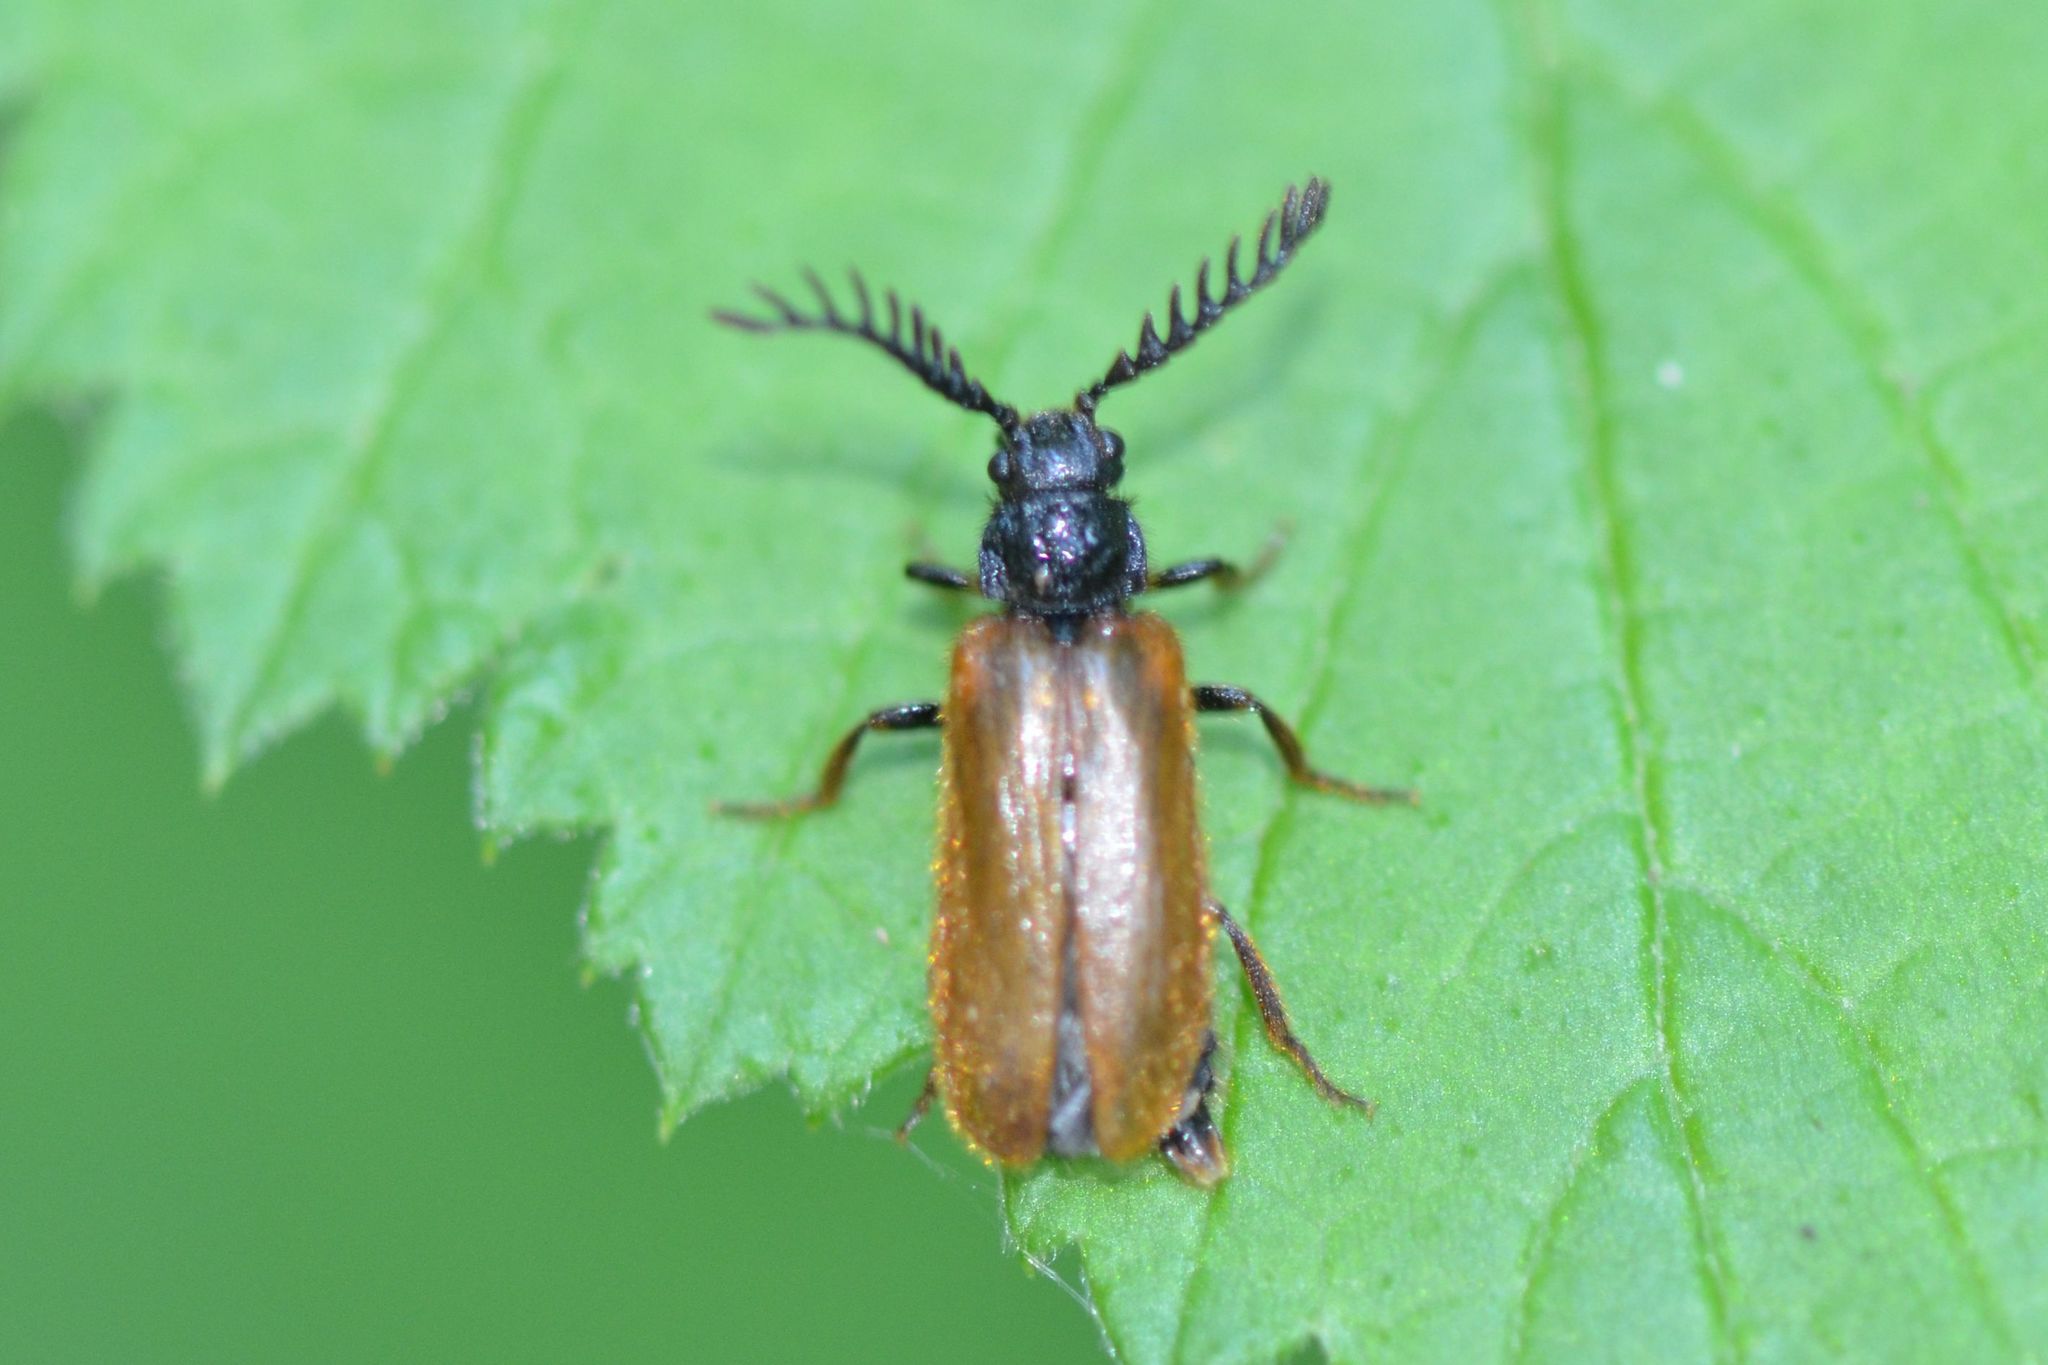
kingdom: Animalia
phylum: Arthropoda
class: Insecta
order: Coleoptera
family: Drilidae
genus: Drilus
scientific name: Drilus flavescens
